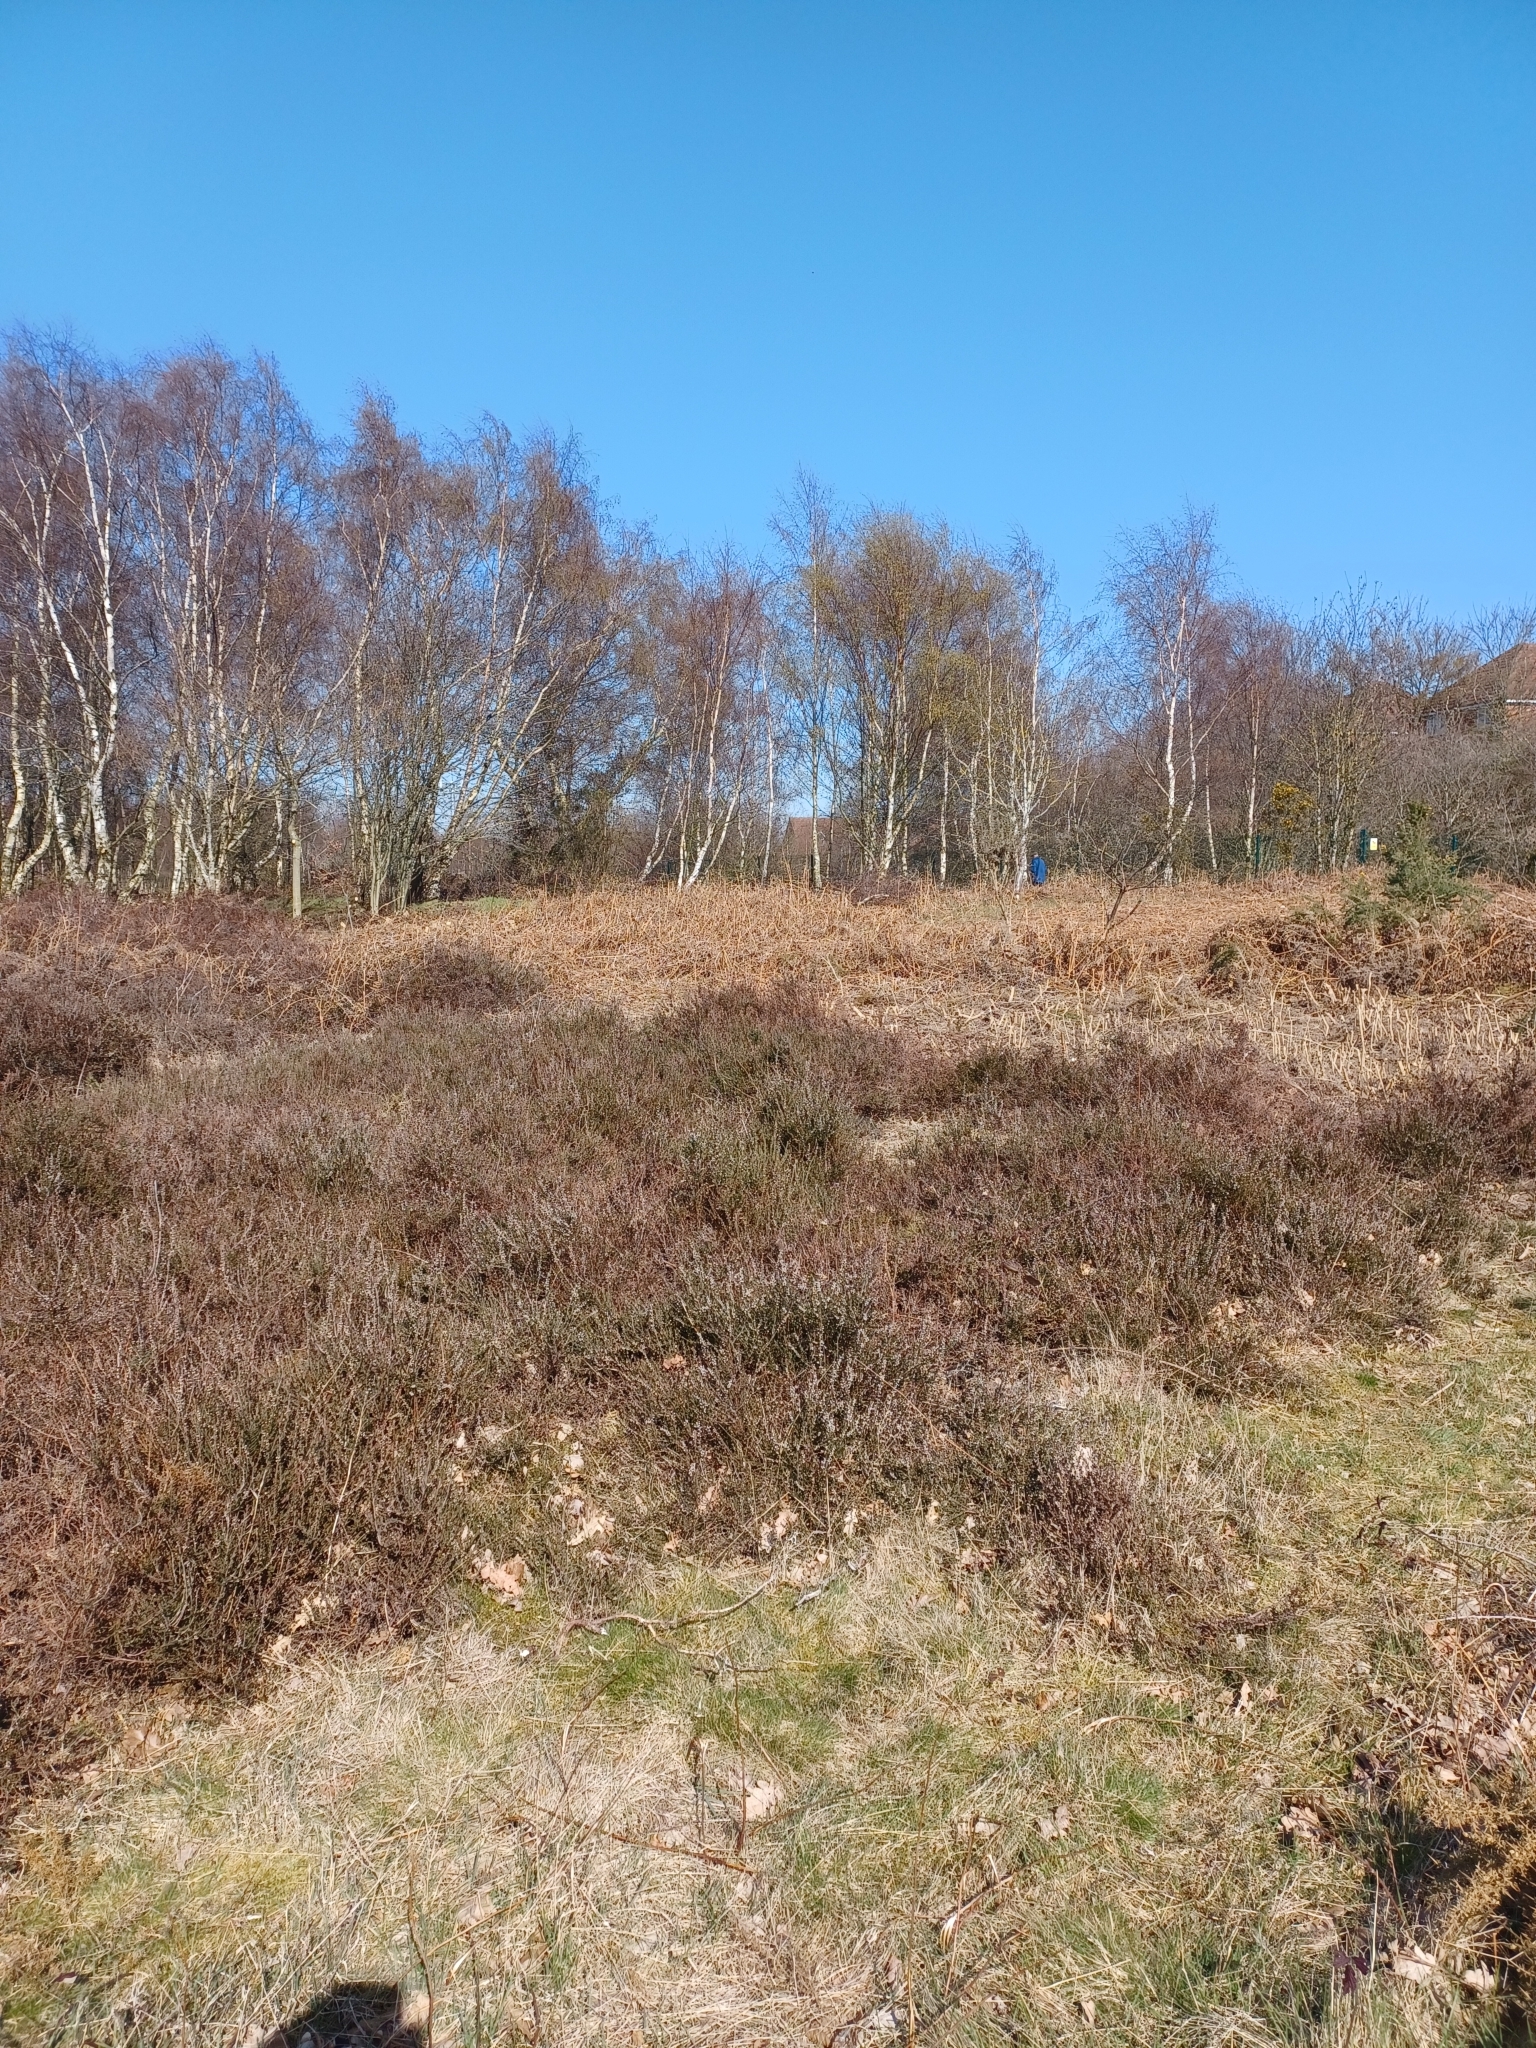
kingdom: Plantae
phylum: Tracheophyta
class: Magnoliopsida
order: Ericales
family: Ericaceae
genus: Calluna
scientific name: Calluna vulgaris
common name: Heather
